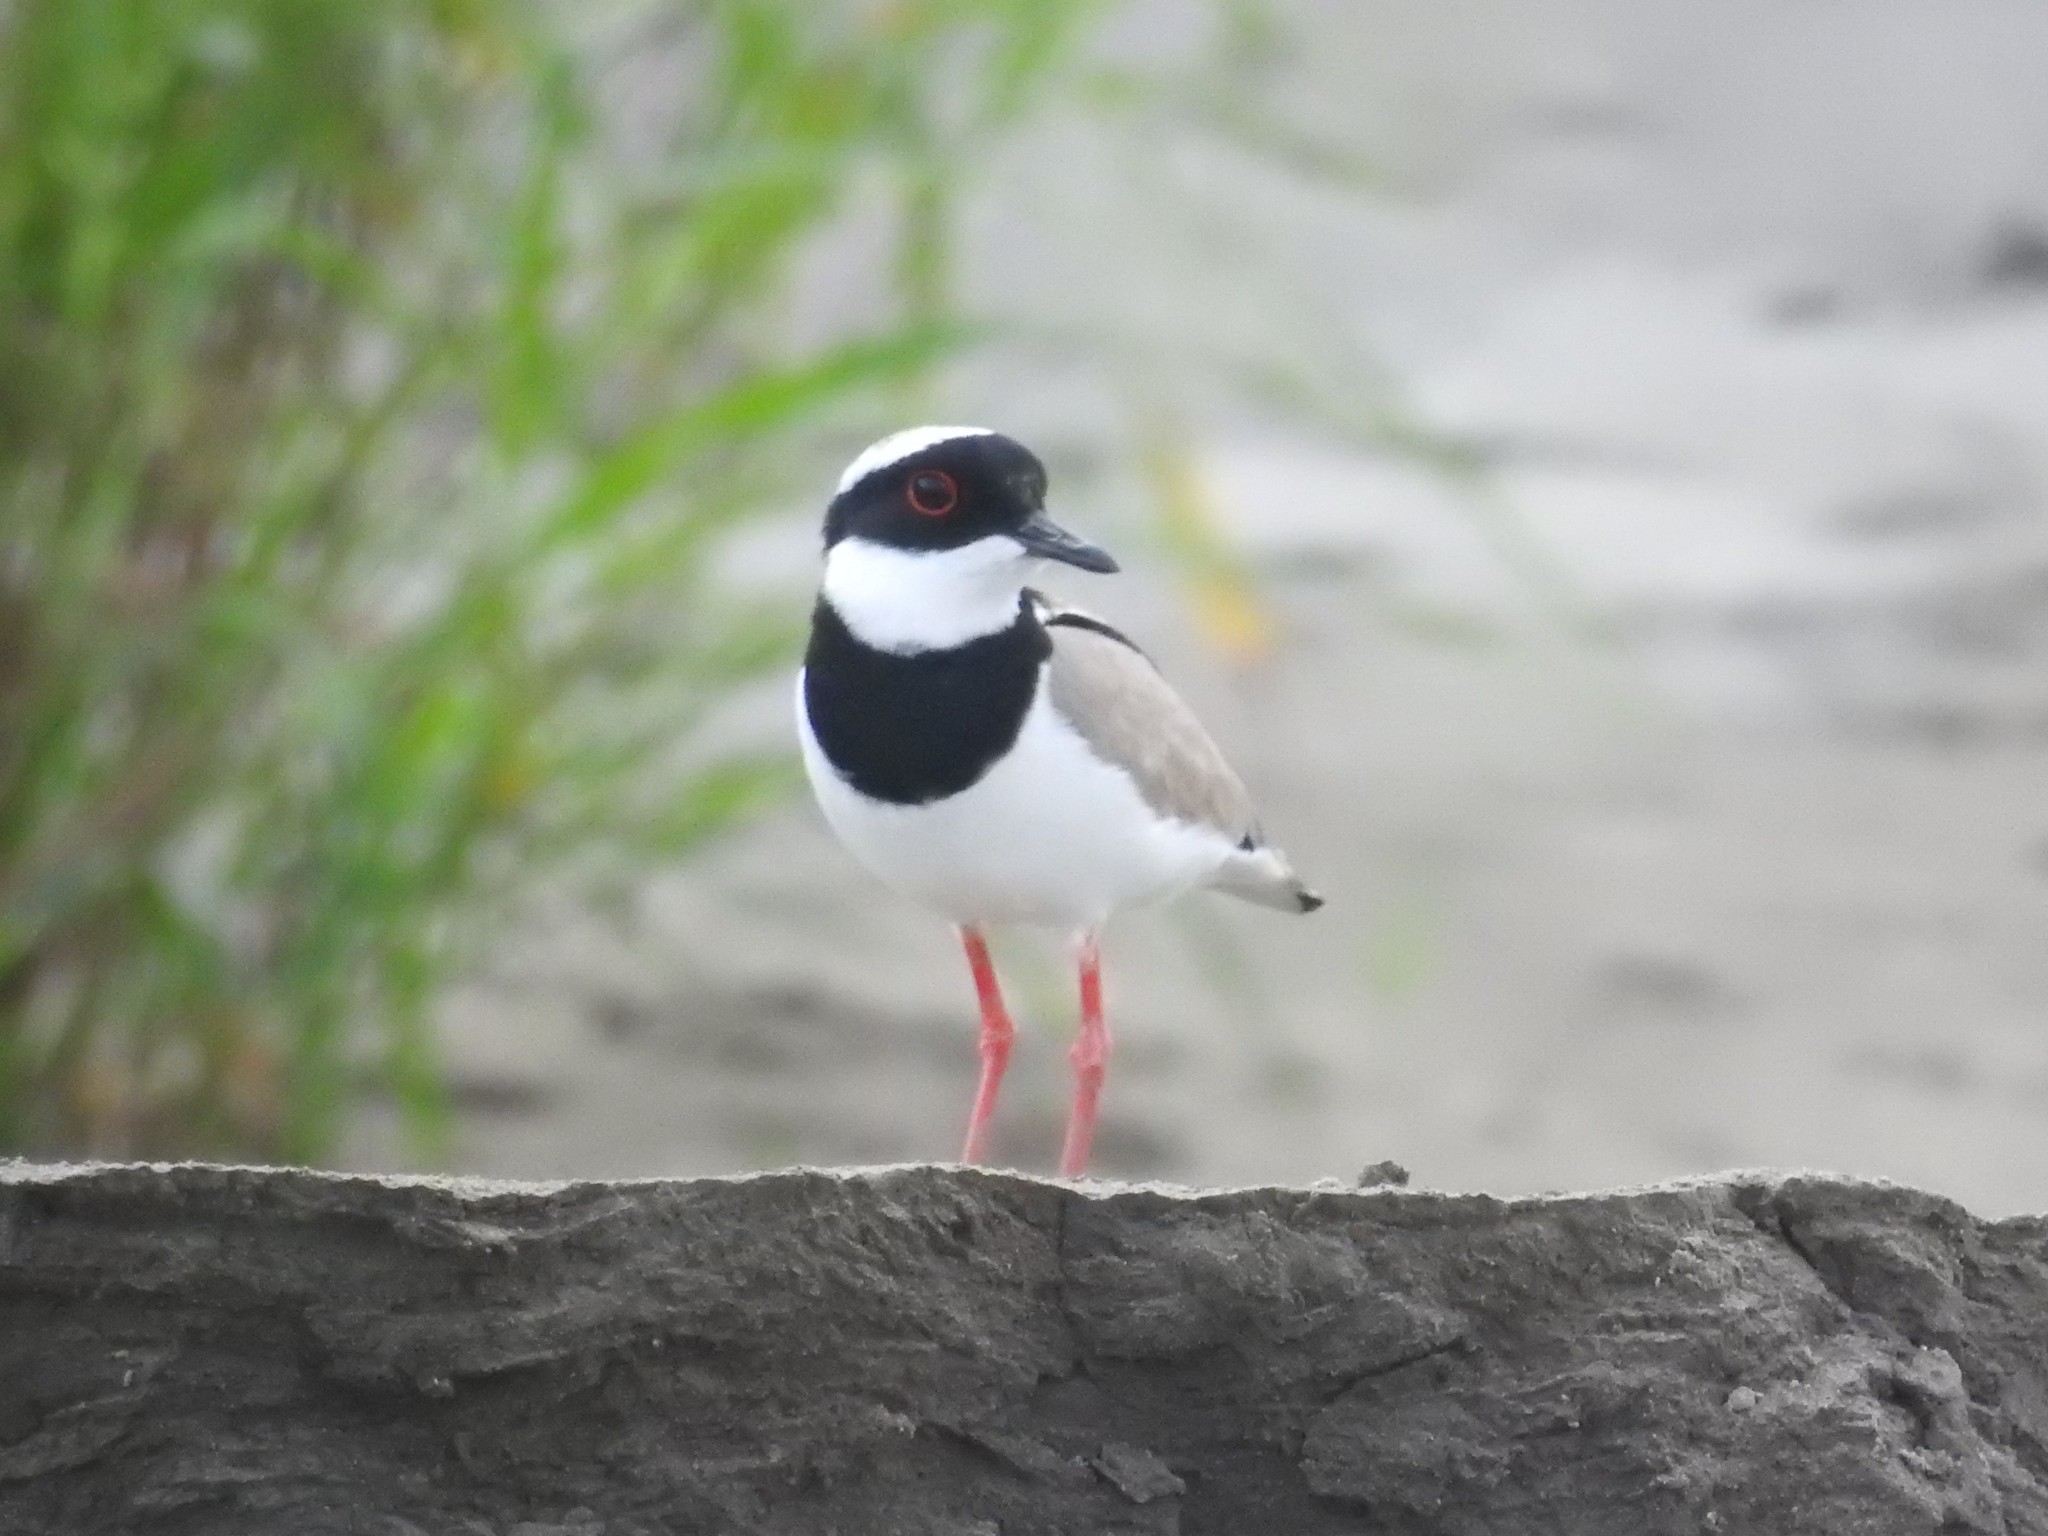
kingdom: Animalia
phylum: Chordata
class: Aves
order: Charadriiformes
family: Charadriidae
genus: Hoploxypterus
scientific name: Hoploxypterus cayanus
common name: Pied plover
